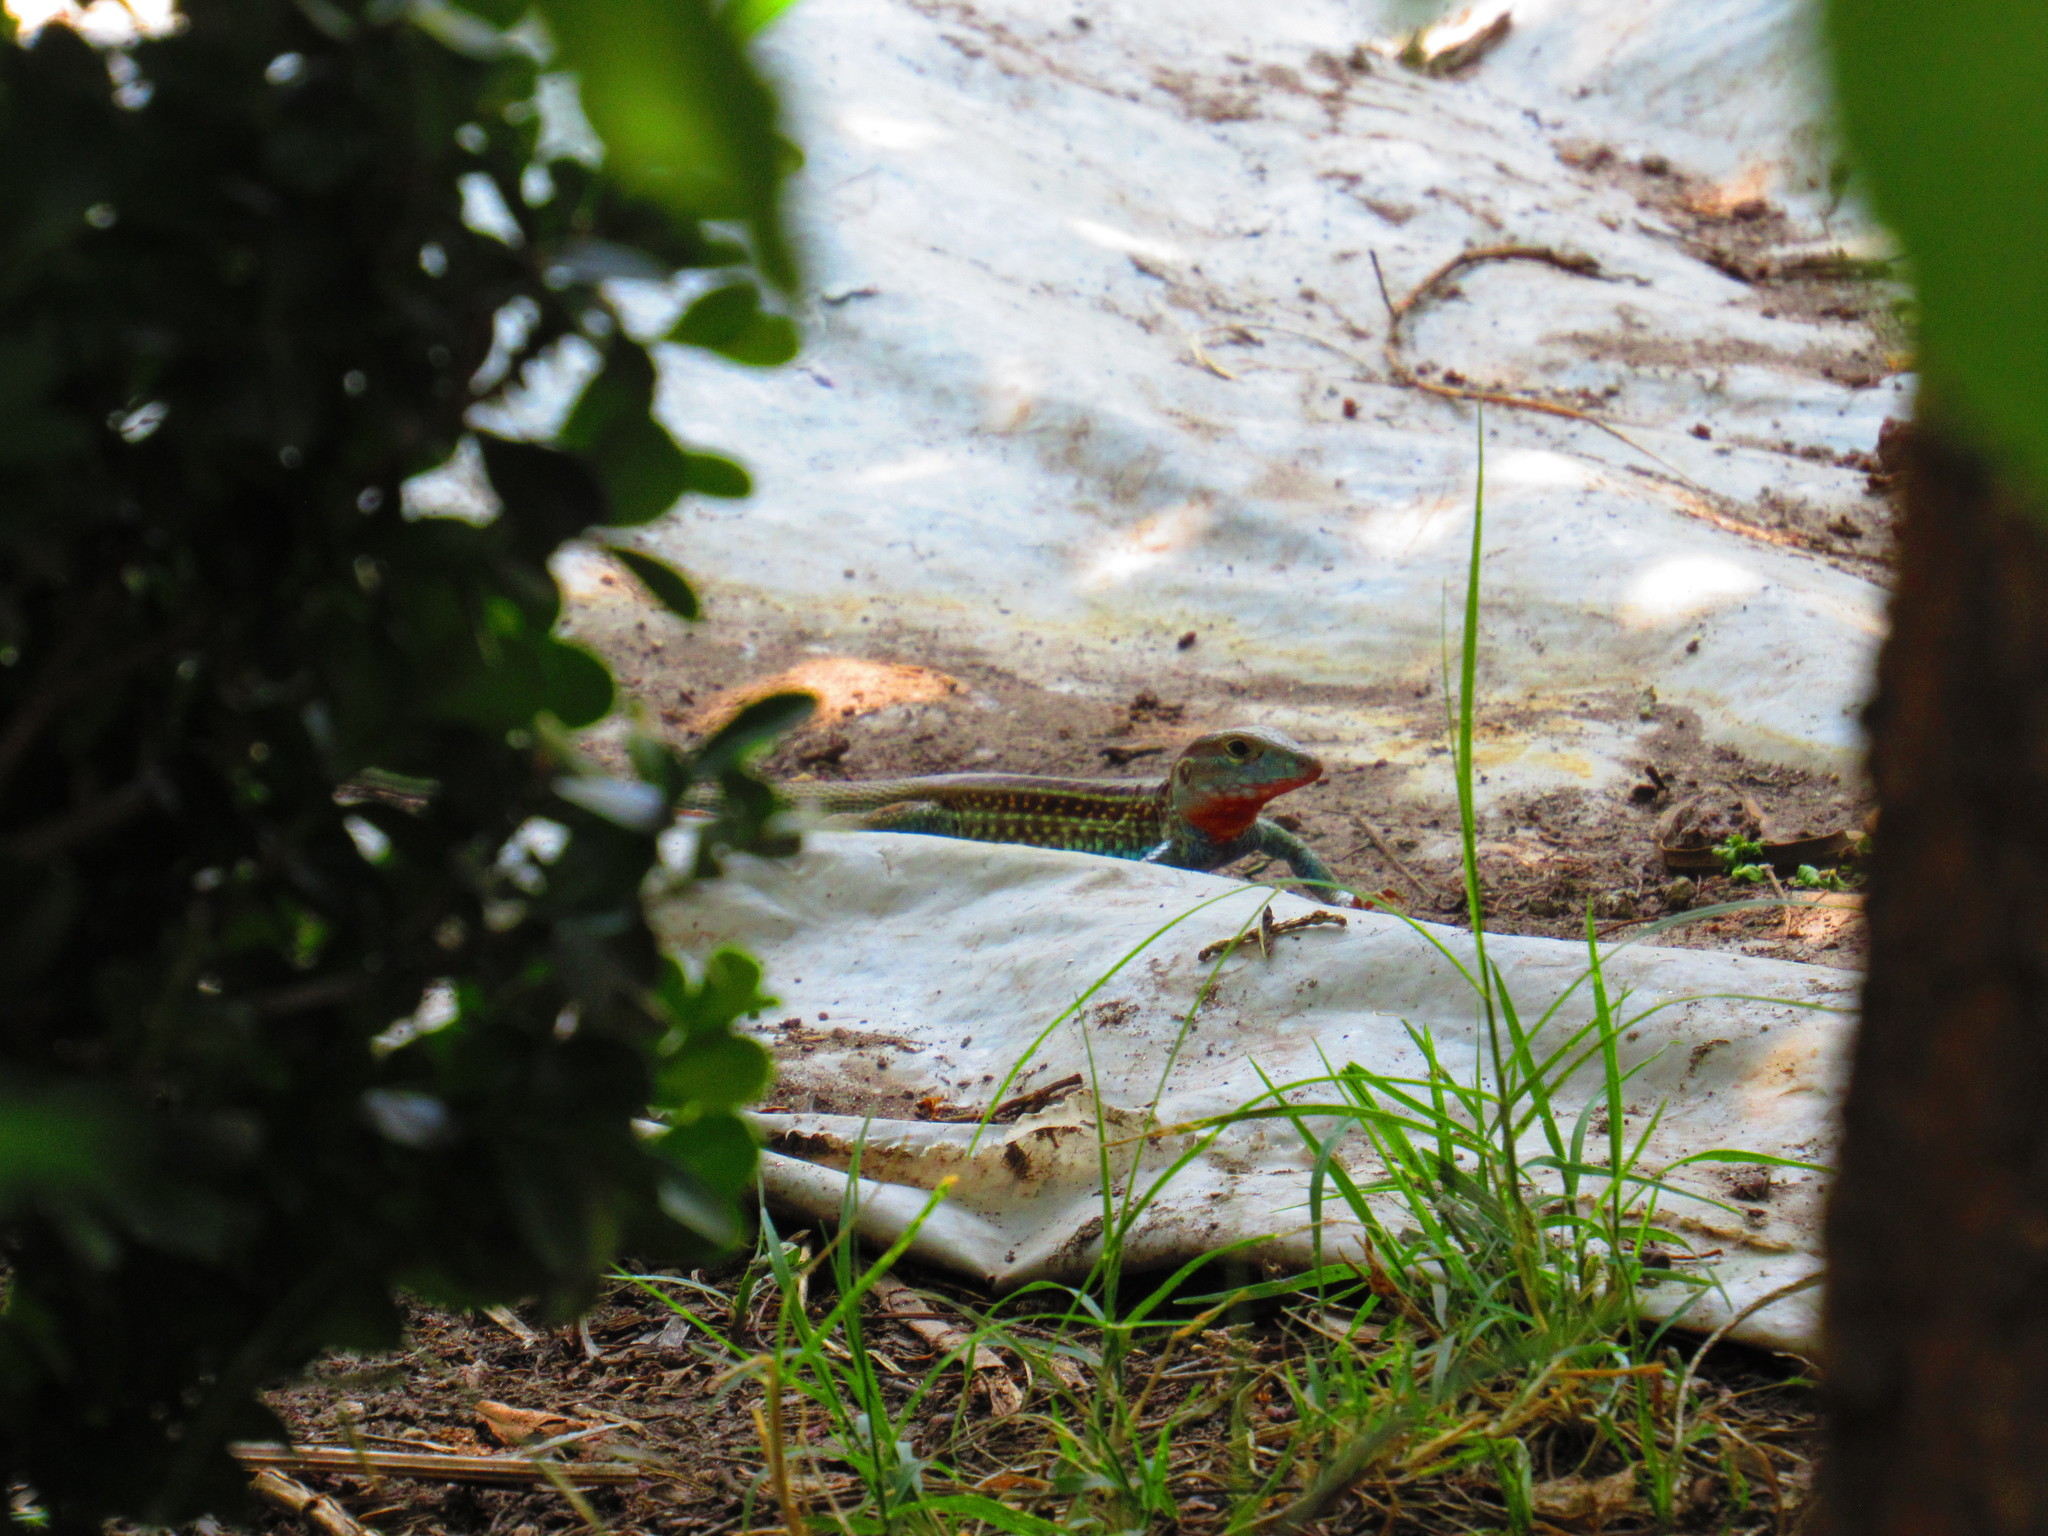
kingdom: Animalia
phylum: Chordata
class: Squamata
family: Teiidae
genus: Aspidoscelis
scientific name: Aspidoscelis gularis
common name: Eastern spotted whiptail
